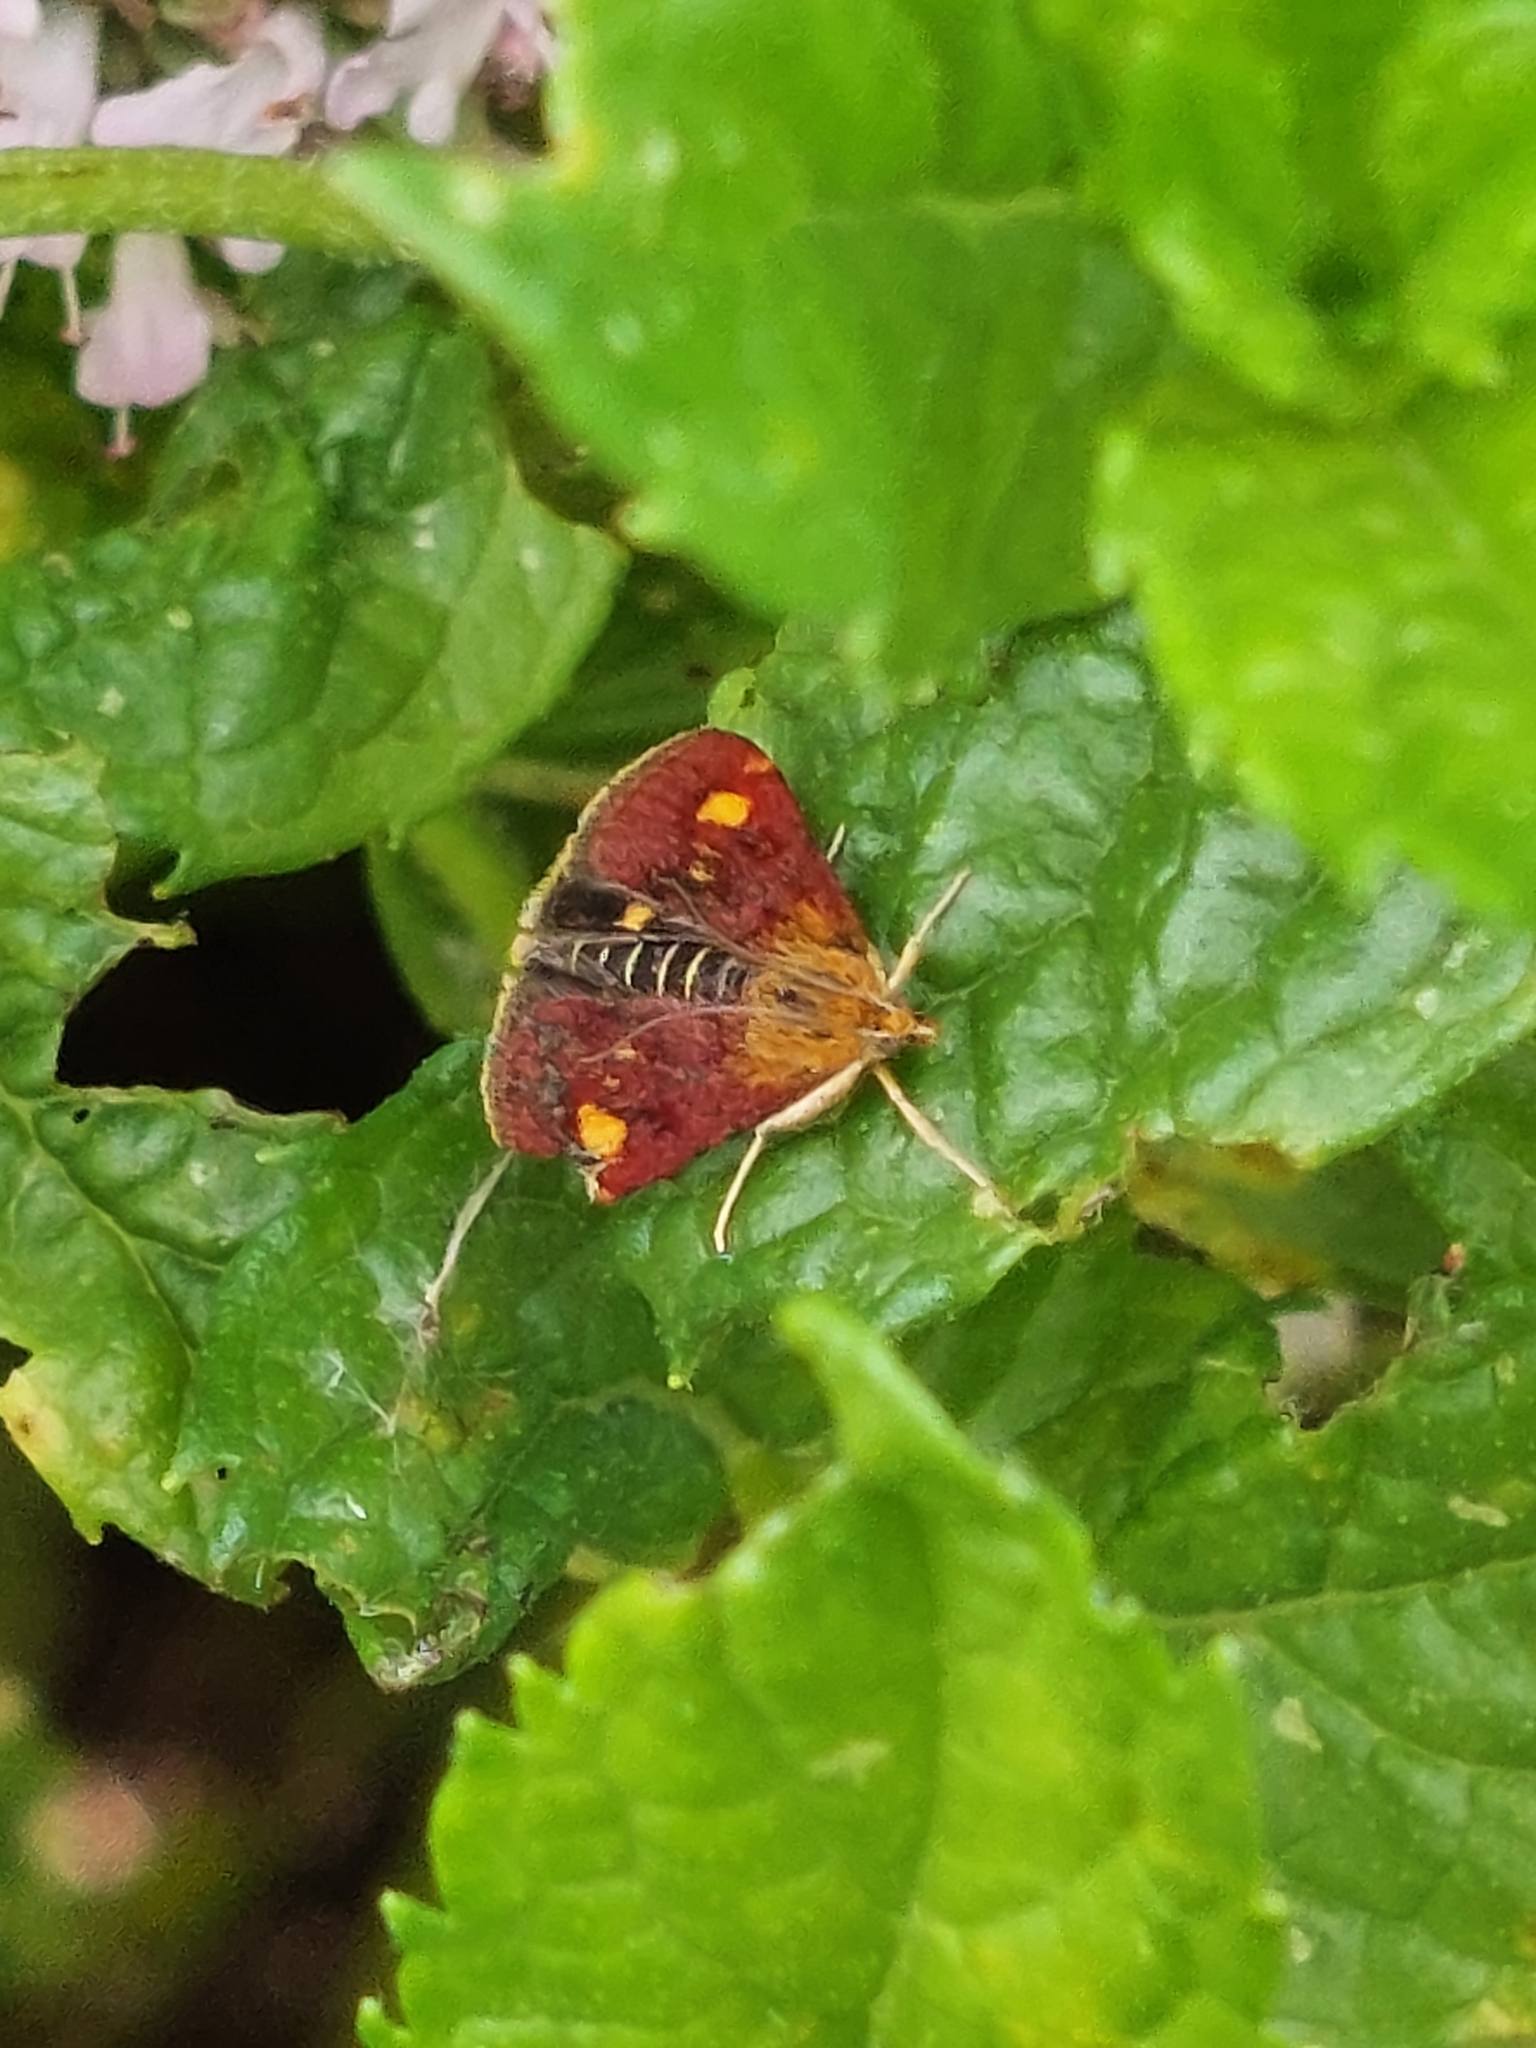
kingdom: Animalia
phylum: Arthropoda
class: Insecta
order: Lepidoptera
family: Crambidae
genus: Pyrausta
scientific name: Pyrausta aurata
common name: Small purple & gold
